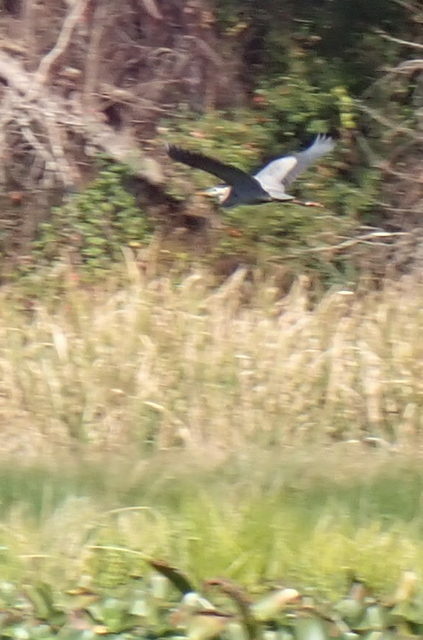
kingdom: Animalia
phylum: Chordata
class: Aves
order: Pelecaniformes
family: Ardeidae
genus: Ardea
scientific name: Ardea herodias
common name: Great blue heron
